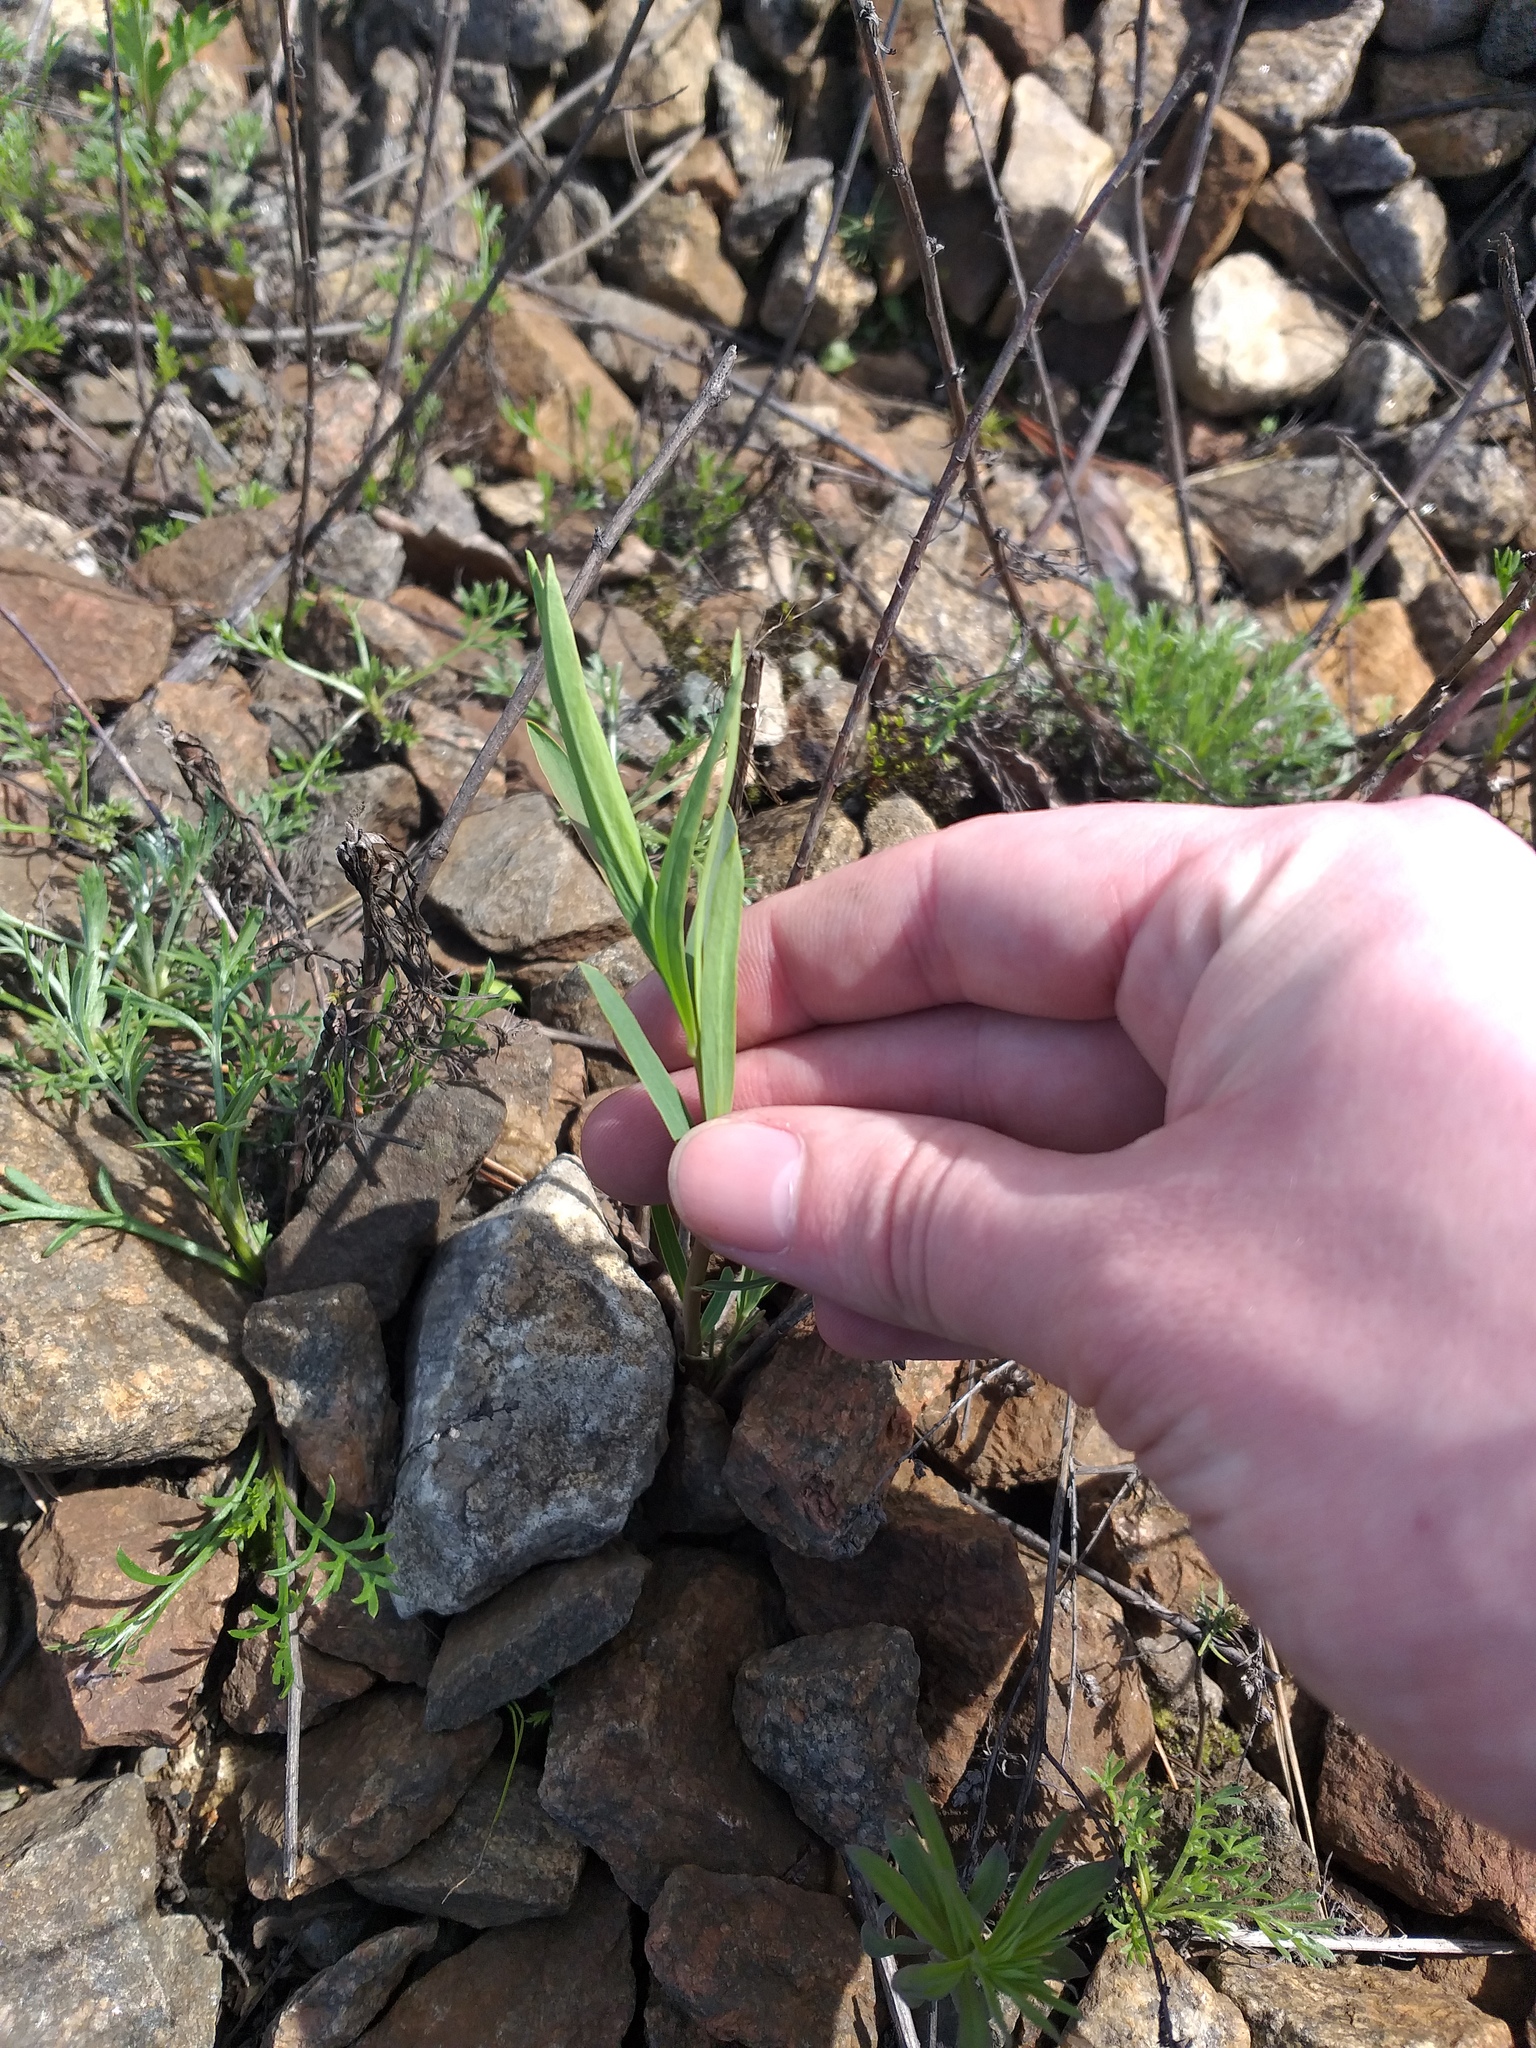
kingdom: Plantae
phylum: Tracheophyta
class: Magnoliopsida
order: Malpighiales
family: Euphorbiaceae
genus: Euphorbia
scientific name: Euphorbia virgata
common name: Leafy spurge
